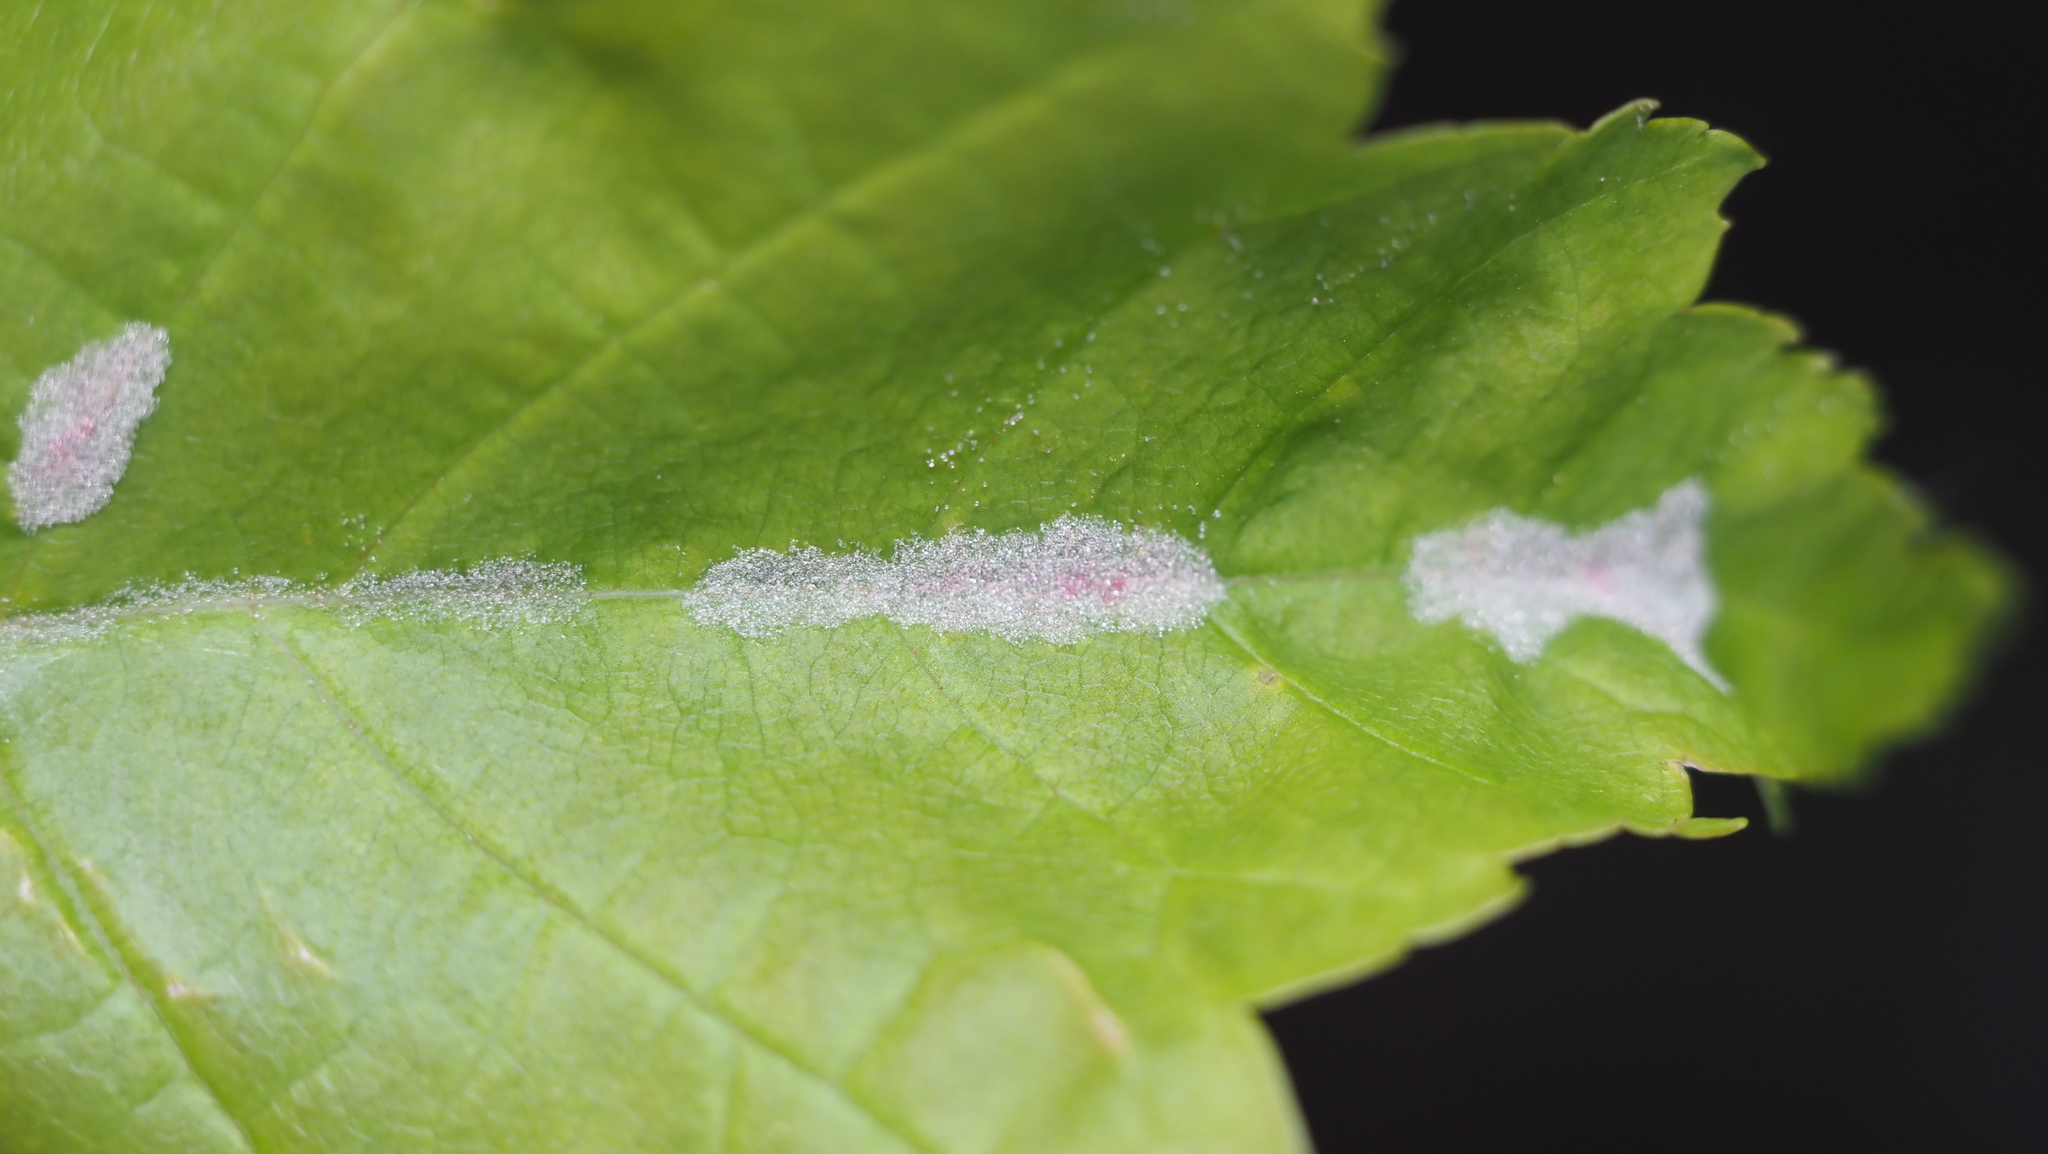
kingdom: Animalia
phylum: Arthropoda
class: Arachnida
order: Trombidiformes
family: Eriophyidae
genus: Aculus
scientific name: Aculus
